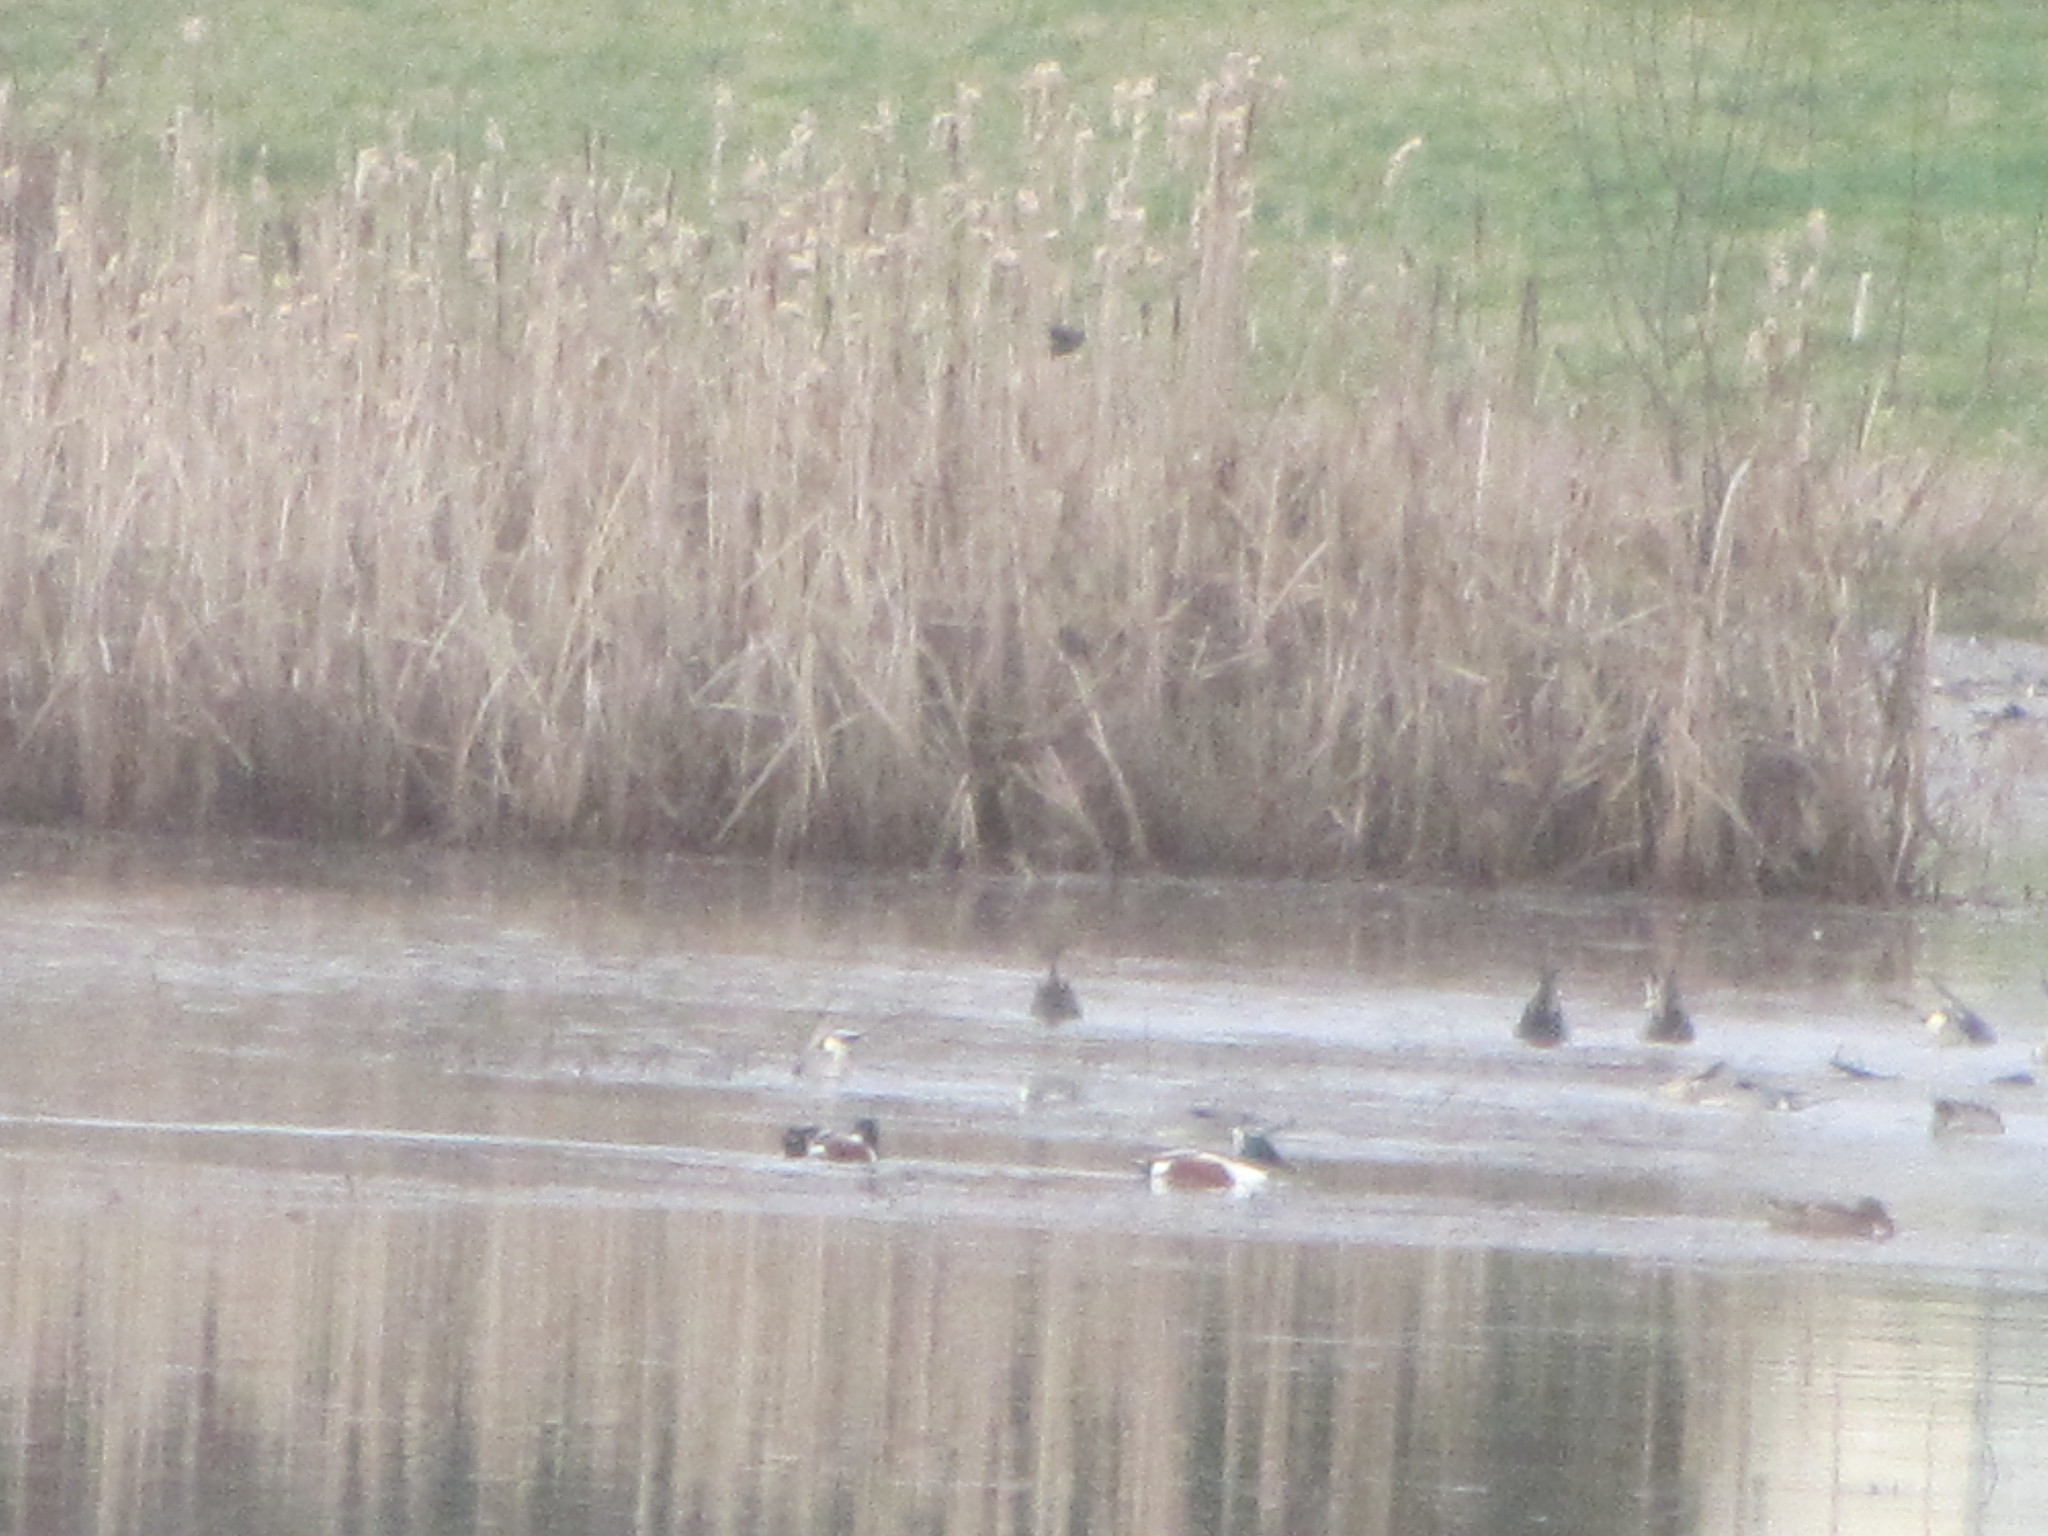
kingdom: Animalia
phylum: Chordata
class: Aves
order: Anseriformes
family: Anatidae
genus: Spatula
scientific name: Spatula clypeata
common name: Northern shoveler
